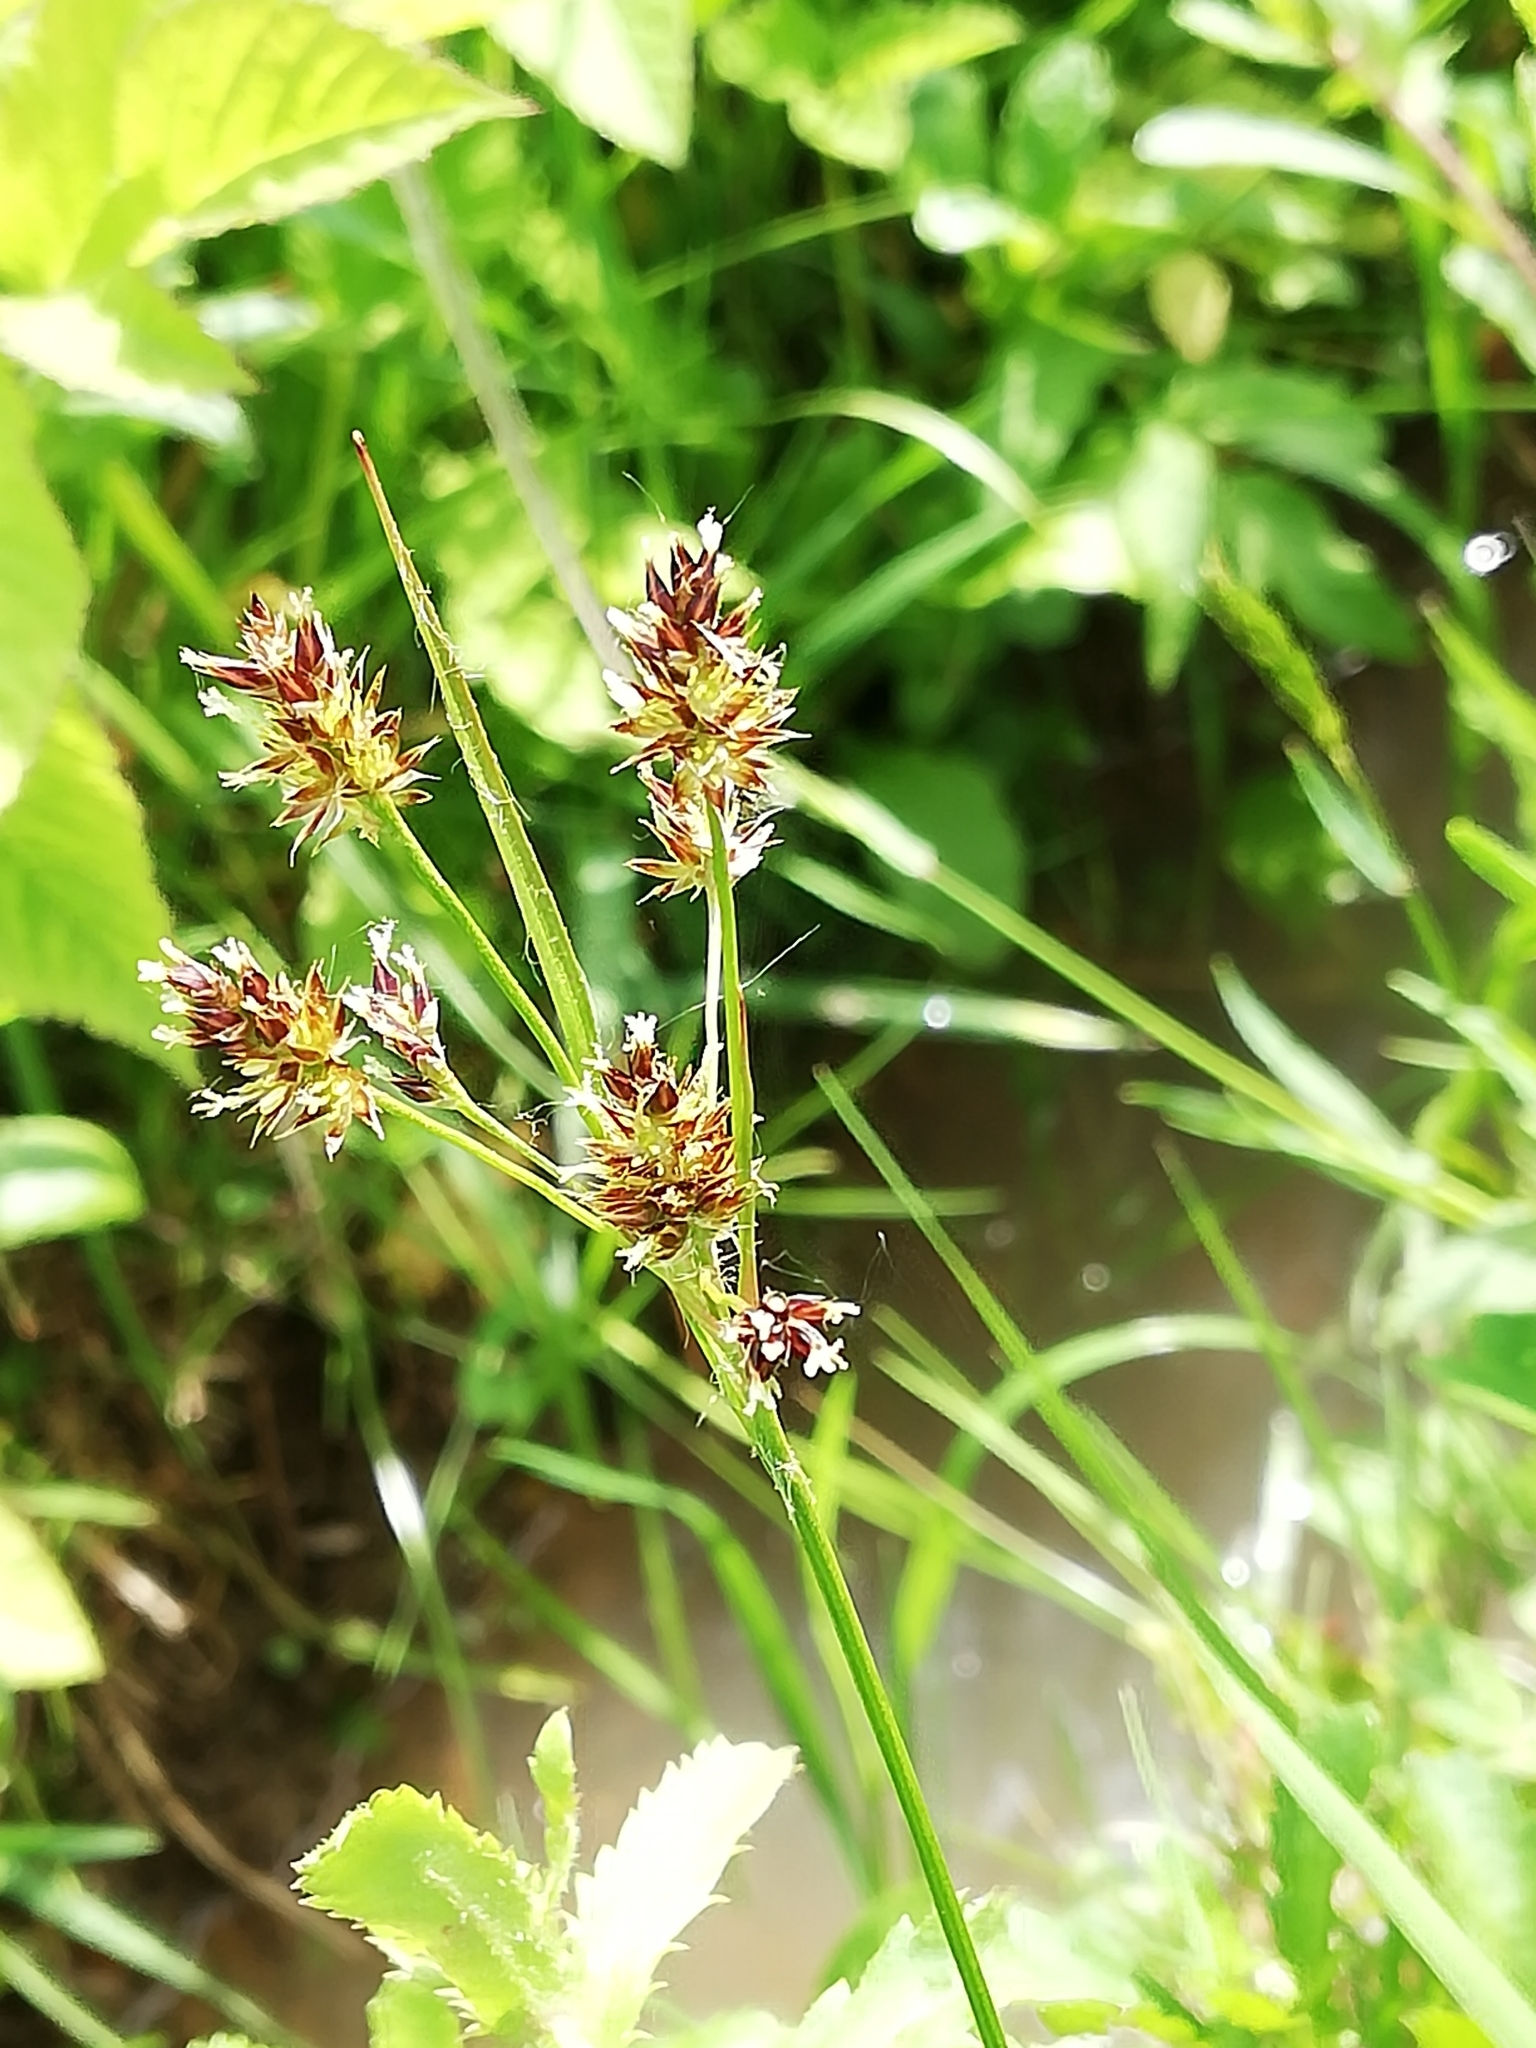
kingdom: Plantae
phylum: Tracheophyta
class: Liliopsida
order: Poales
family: Juncaceae
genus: Luzula
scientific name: Luzula multiflora
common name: Heath wood-rush
